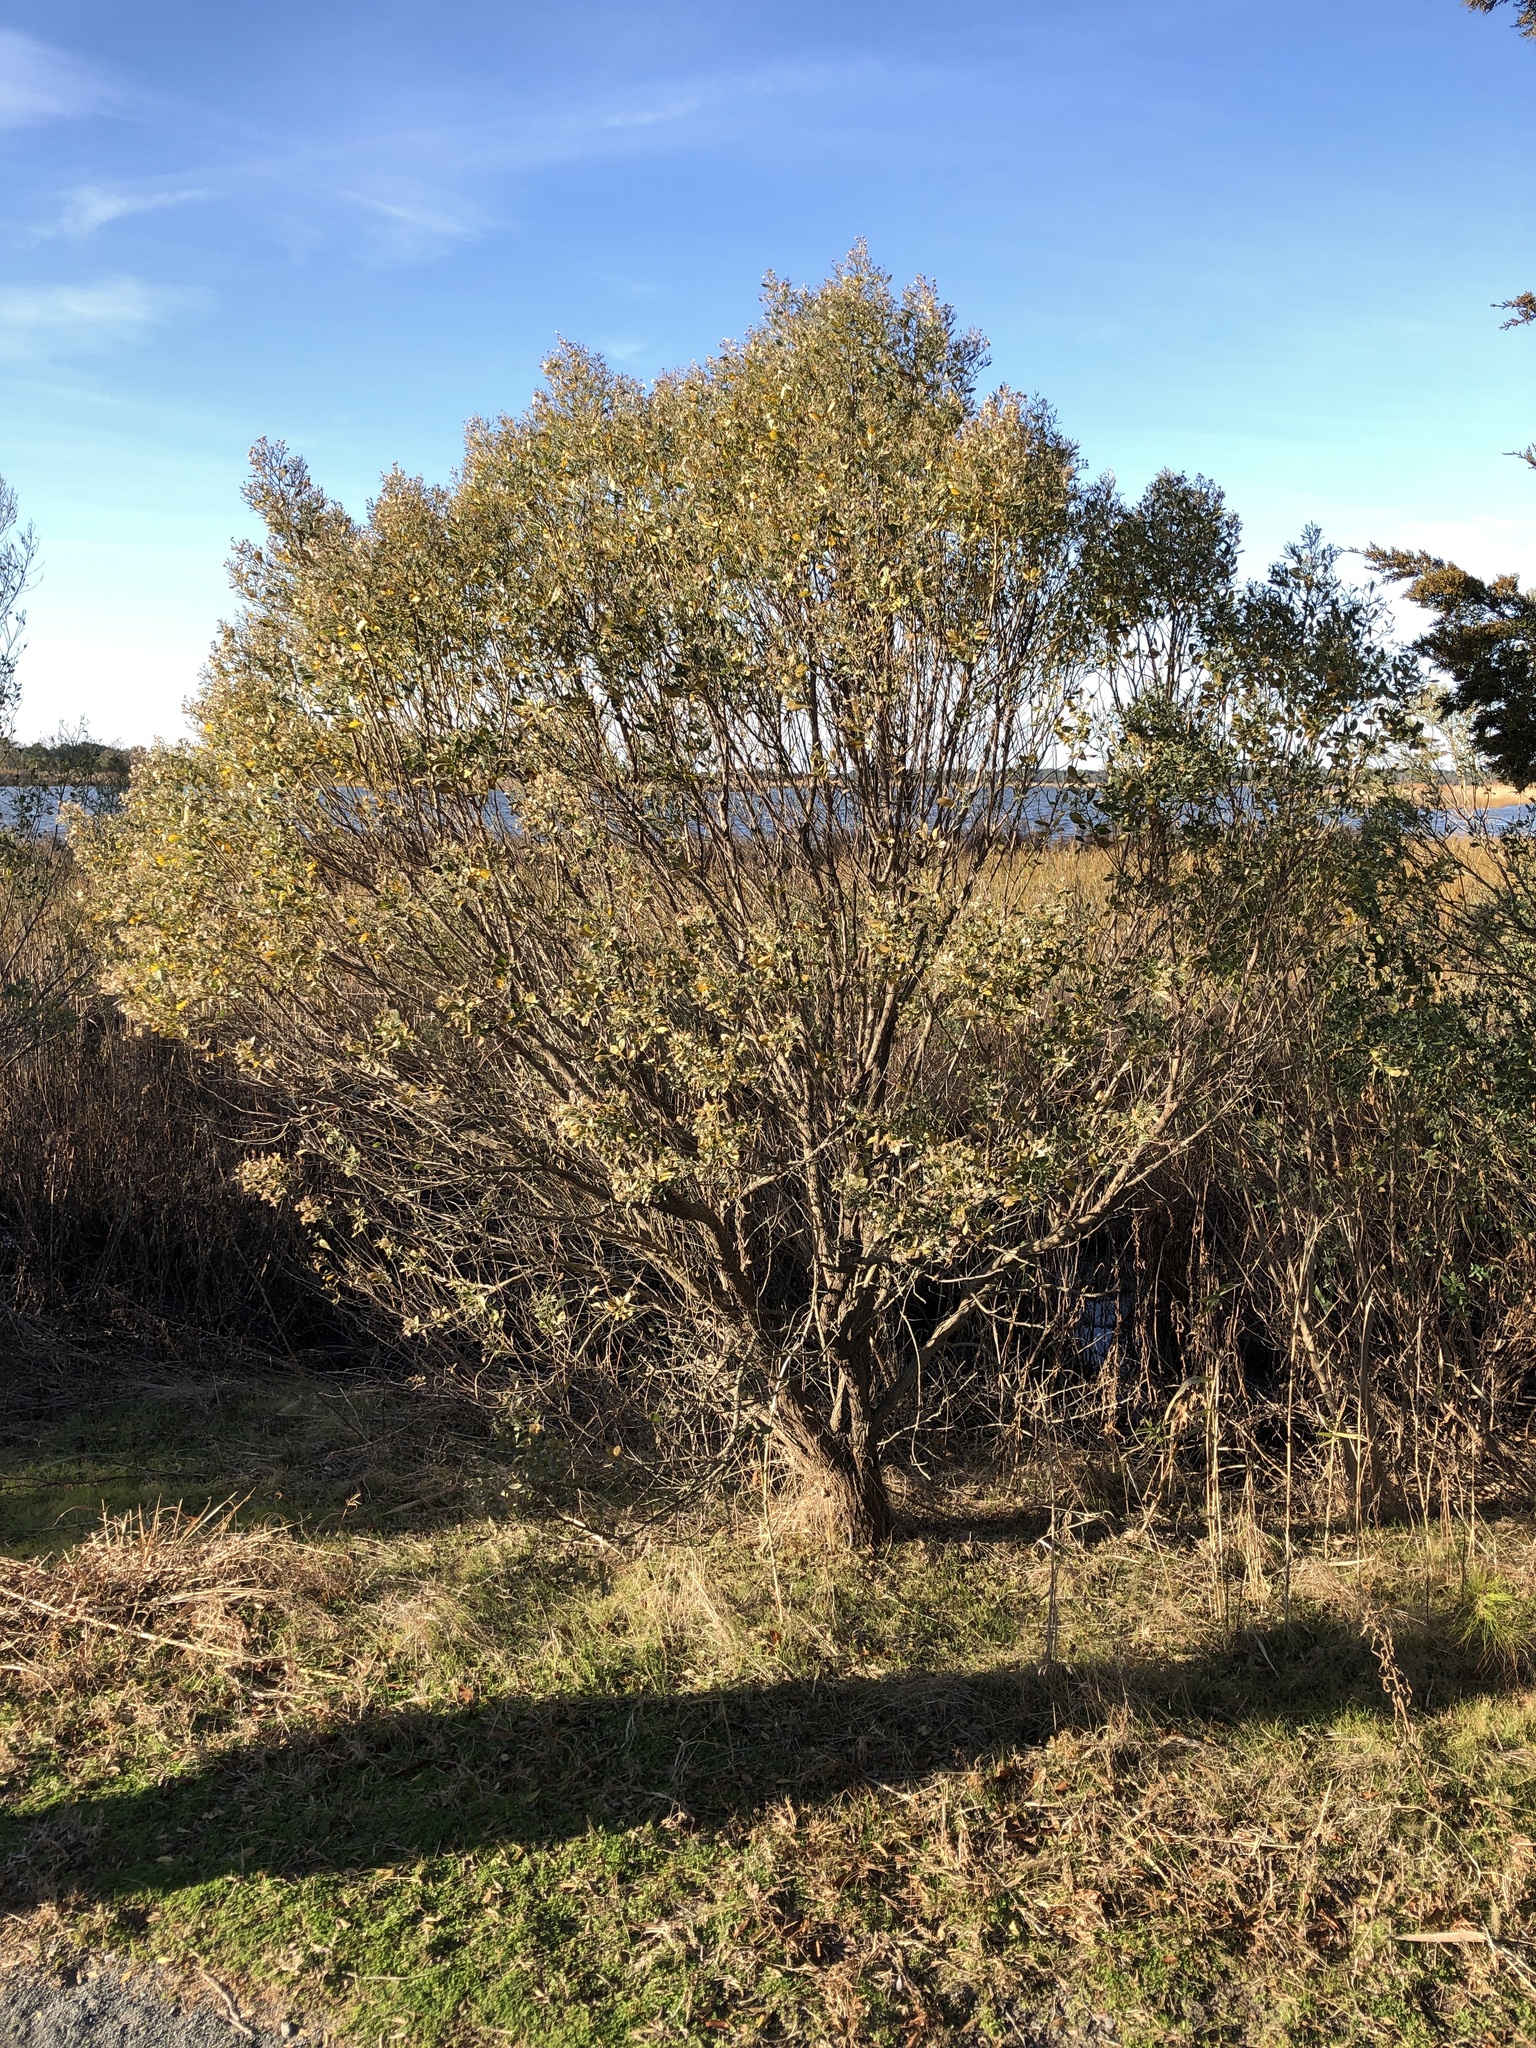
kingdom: Plantae
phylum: Tracheophyta
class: Magnoliopsida
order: Asterales
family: Asteraceae
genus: Baccharis
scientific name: Baccharis halimifolia
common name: Eastern baccharis
